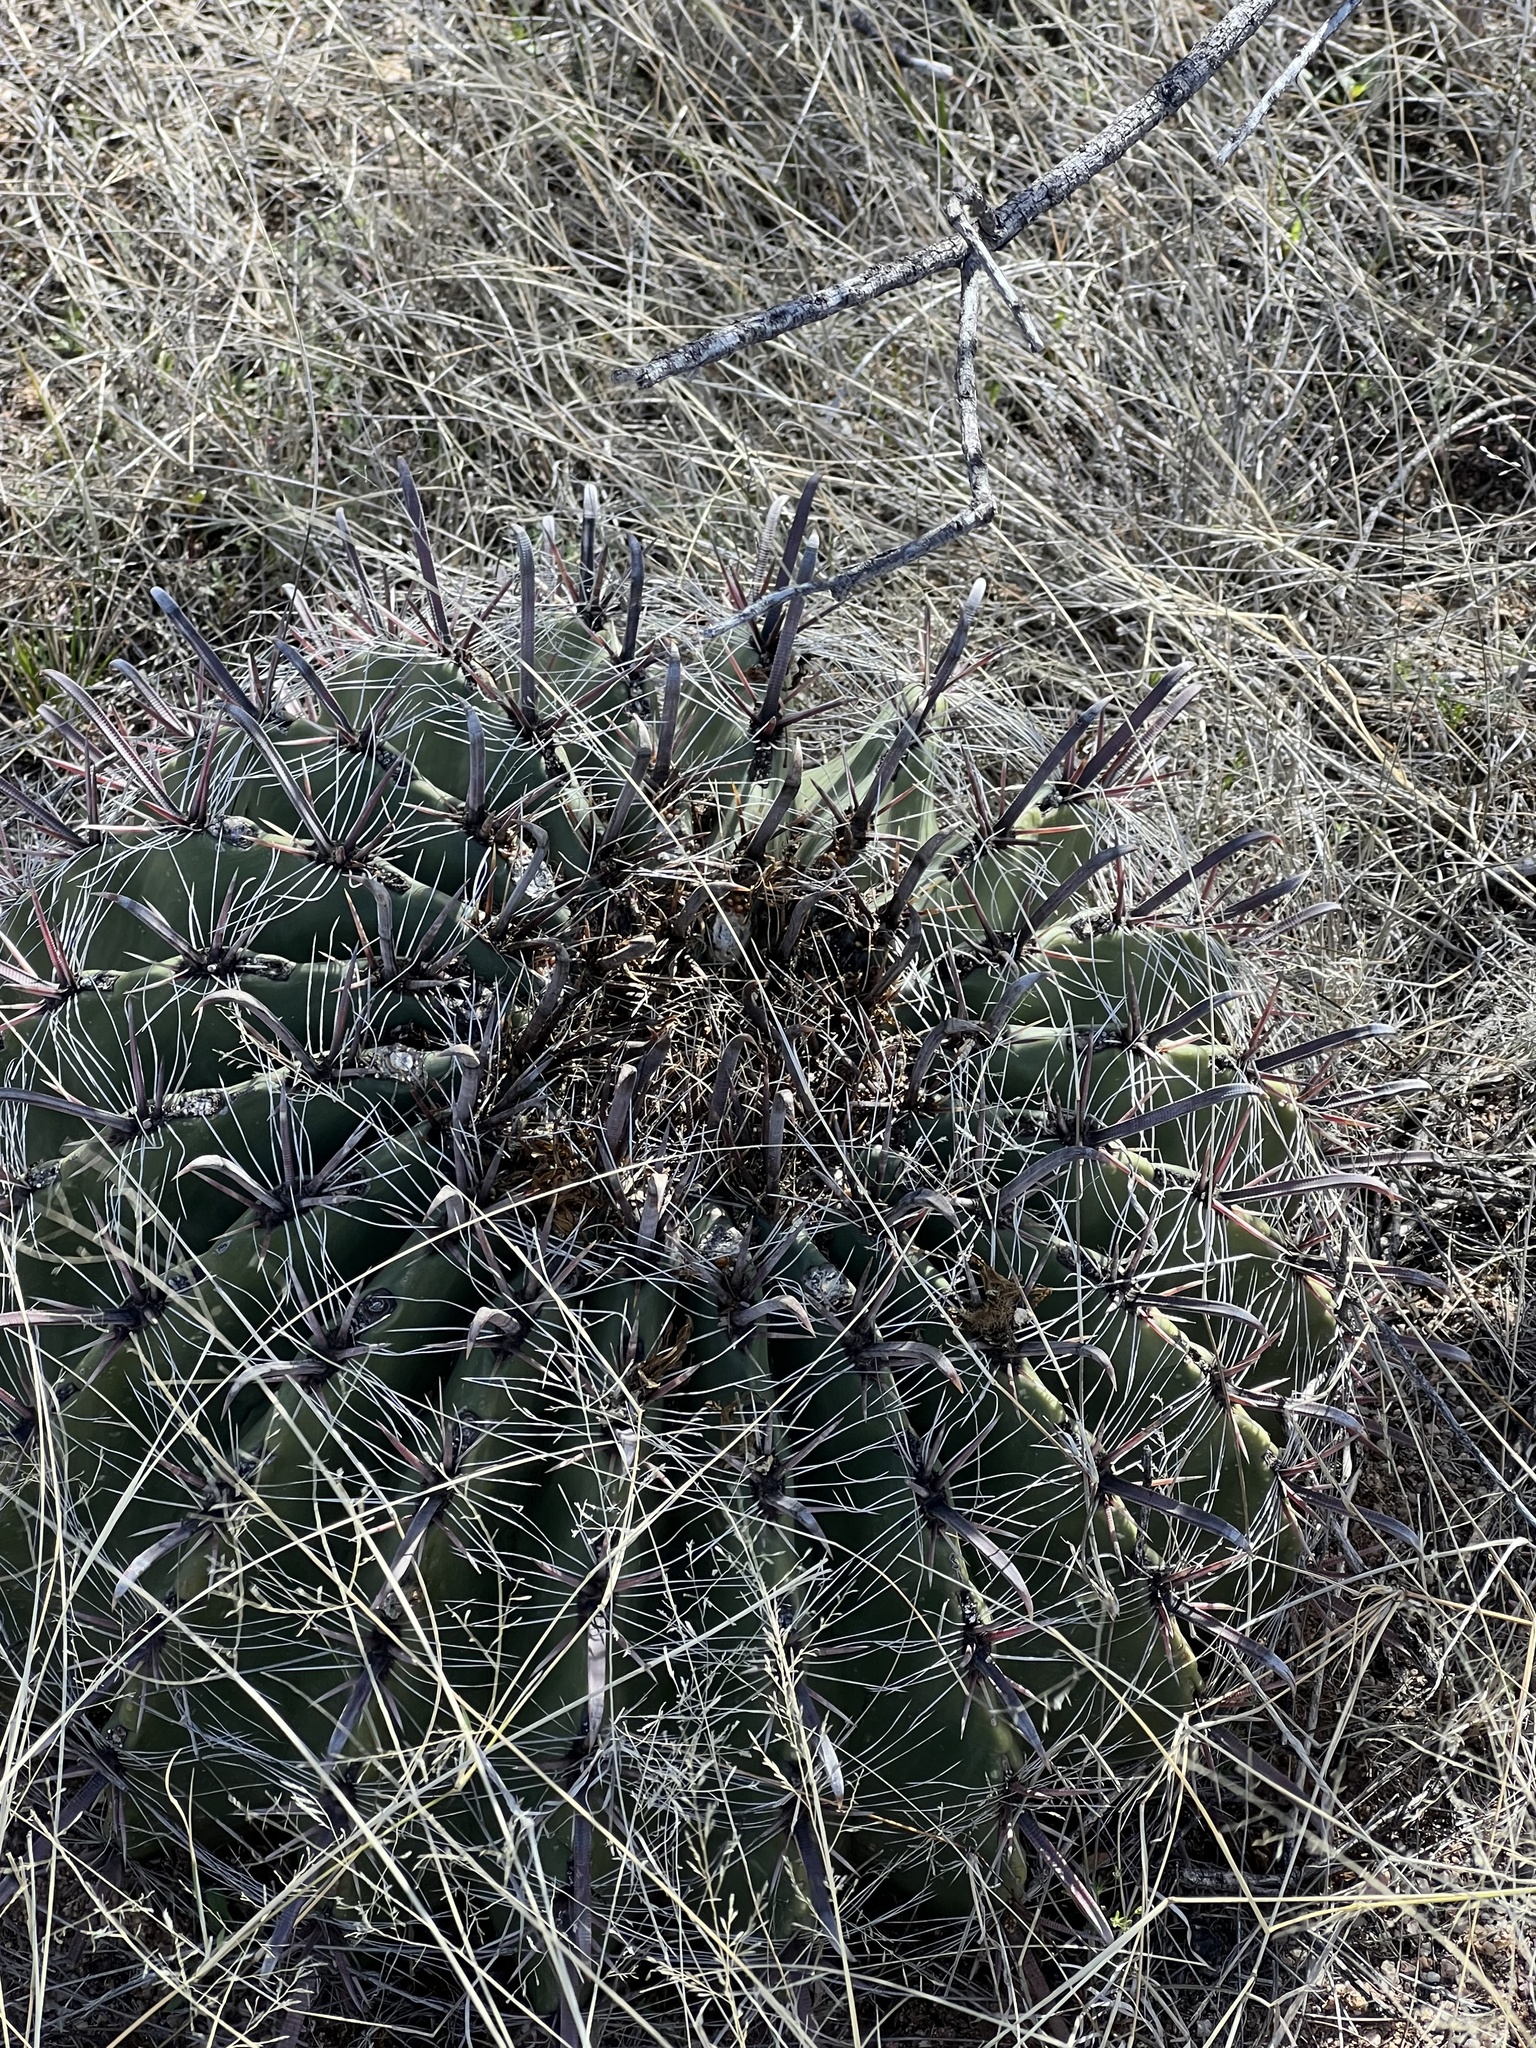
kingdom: Plantae
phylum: Tracheophyta
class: Magnoliopsida
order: Caryophyllales
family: Cactaceae
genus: Ferocactus
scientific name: Ferocactus wislizeni
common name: Candy barrel cactus
